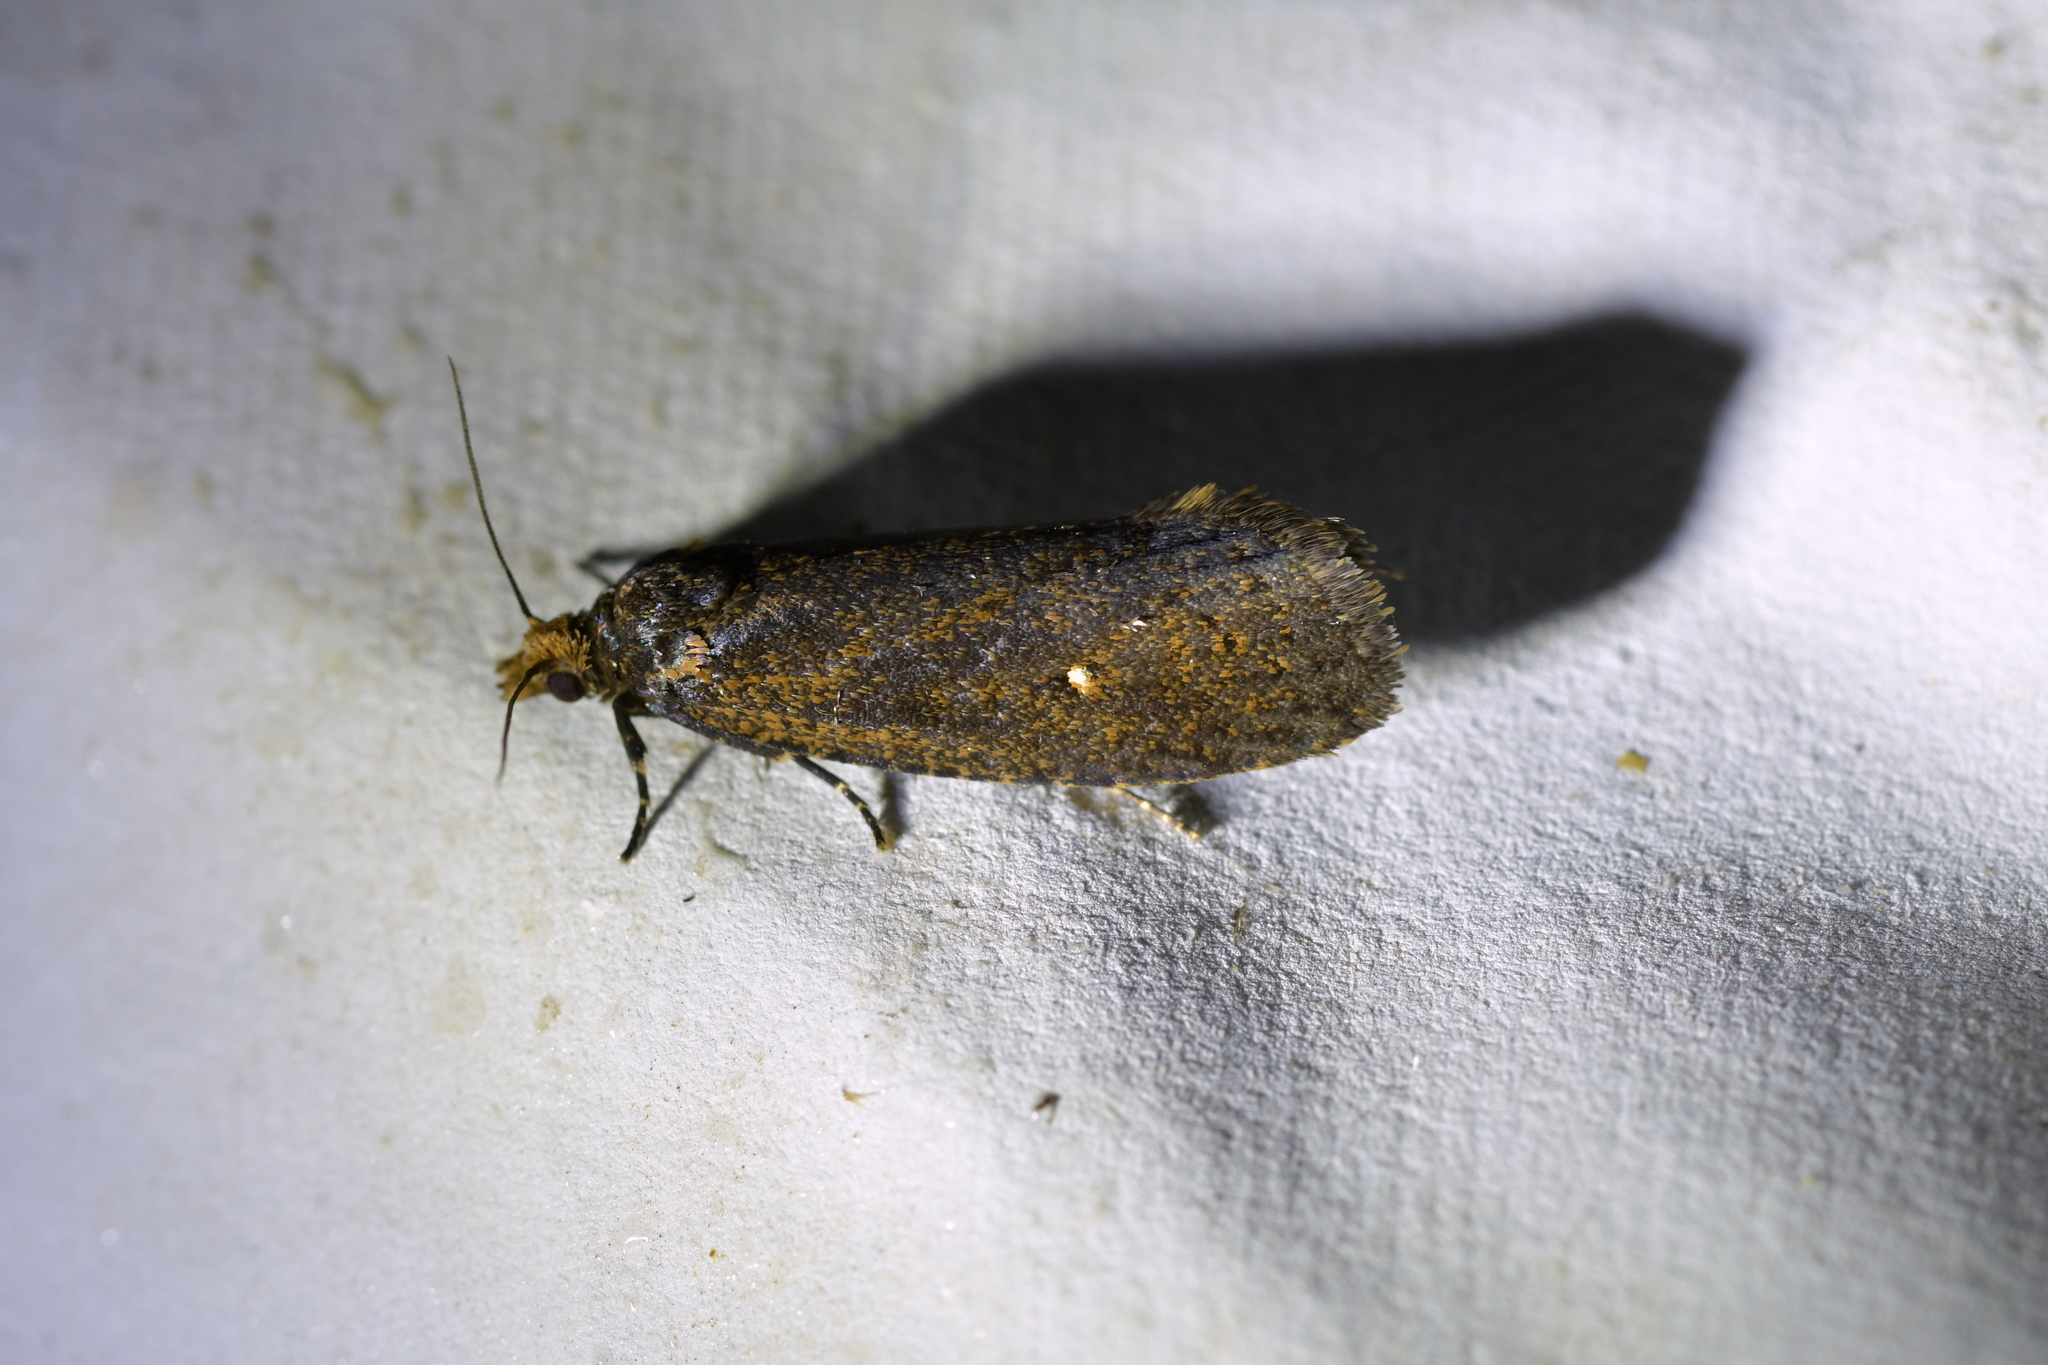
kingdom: Animalia
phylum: Arthropoda
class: Insecta
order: Lepidoptera
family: Tortricidae
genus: Cryptaspasma
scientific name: Cryptaspasma querula
